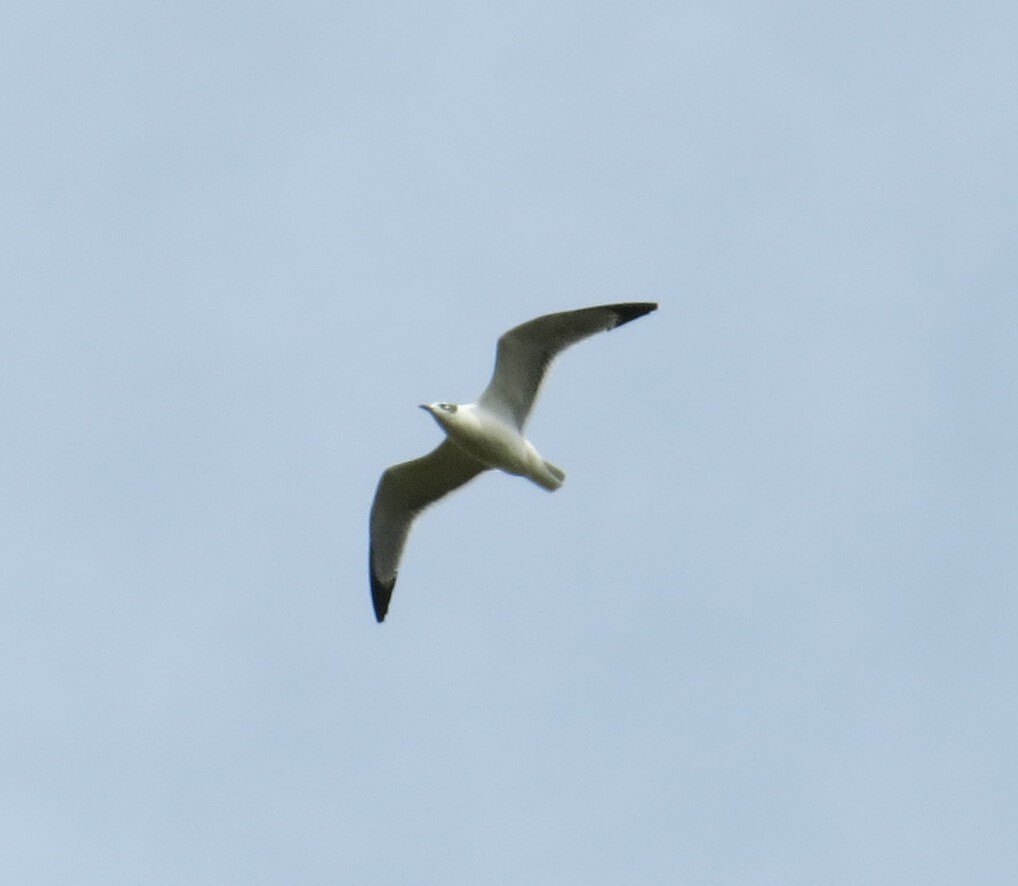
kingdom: Animalia
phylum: Chordata
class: Aves
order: Charadriiformes
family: Laridae
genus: Leucophaeus
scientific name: Leucophaeus pipixcan
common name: Franklin's gull
